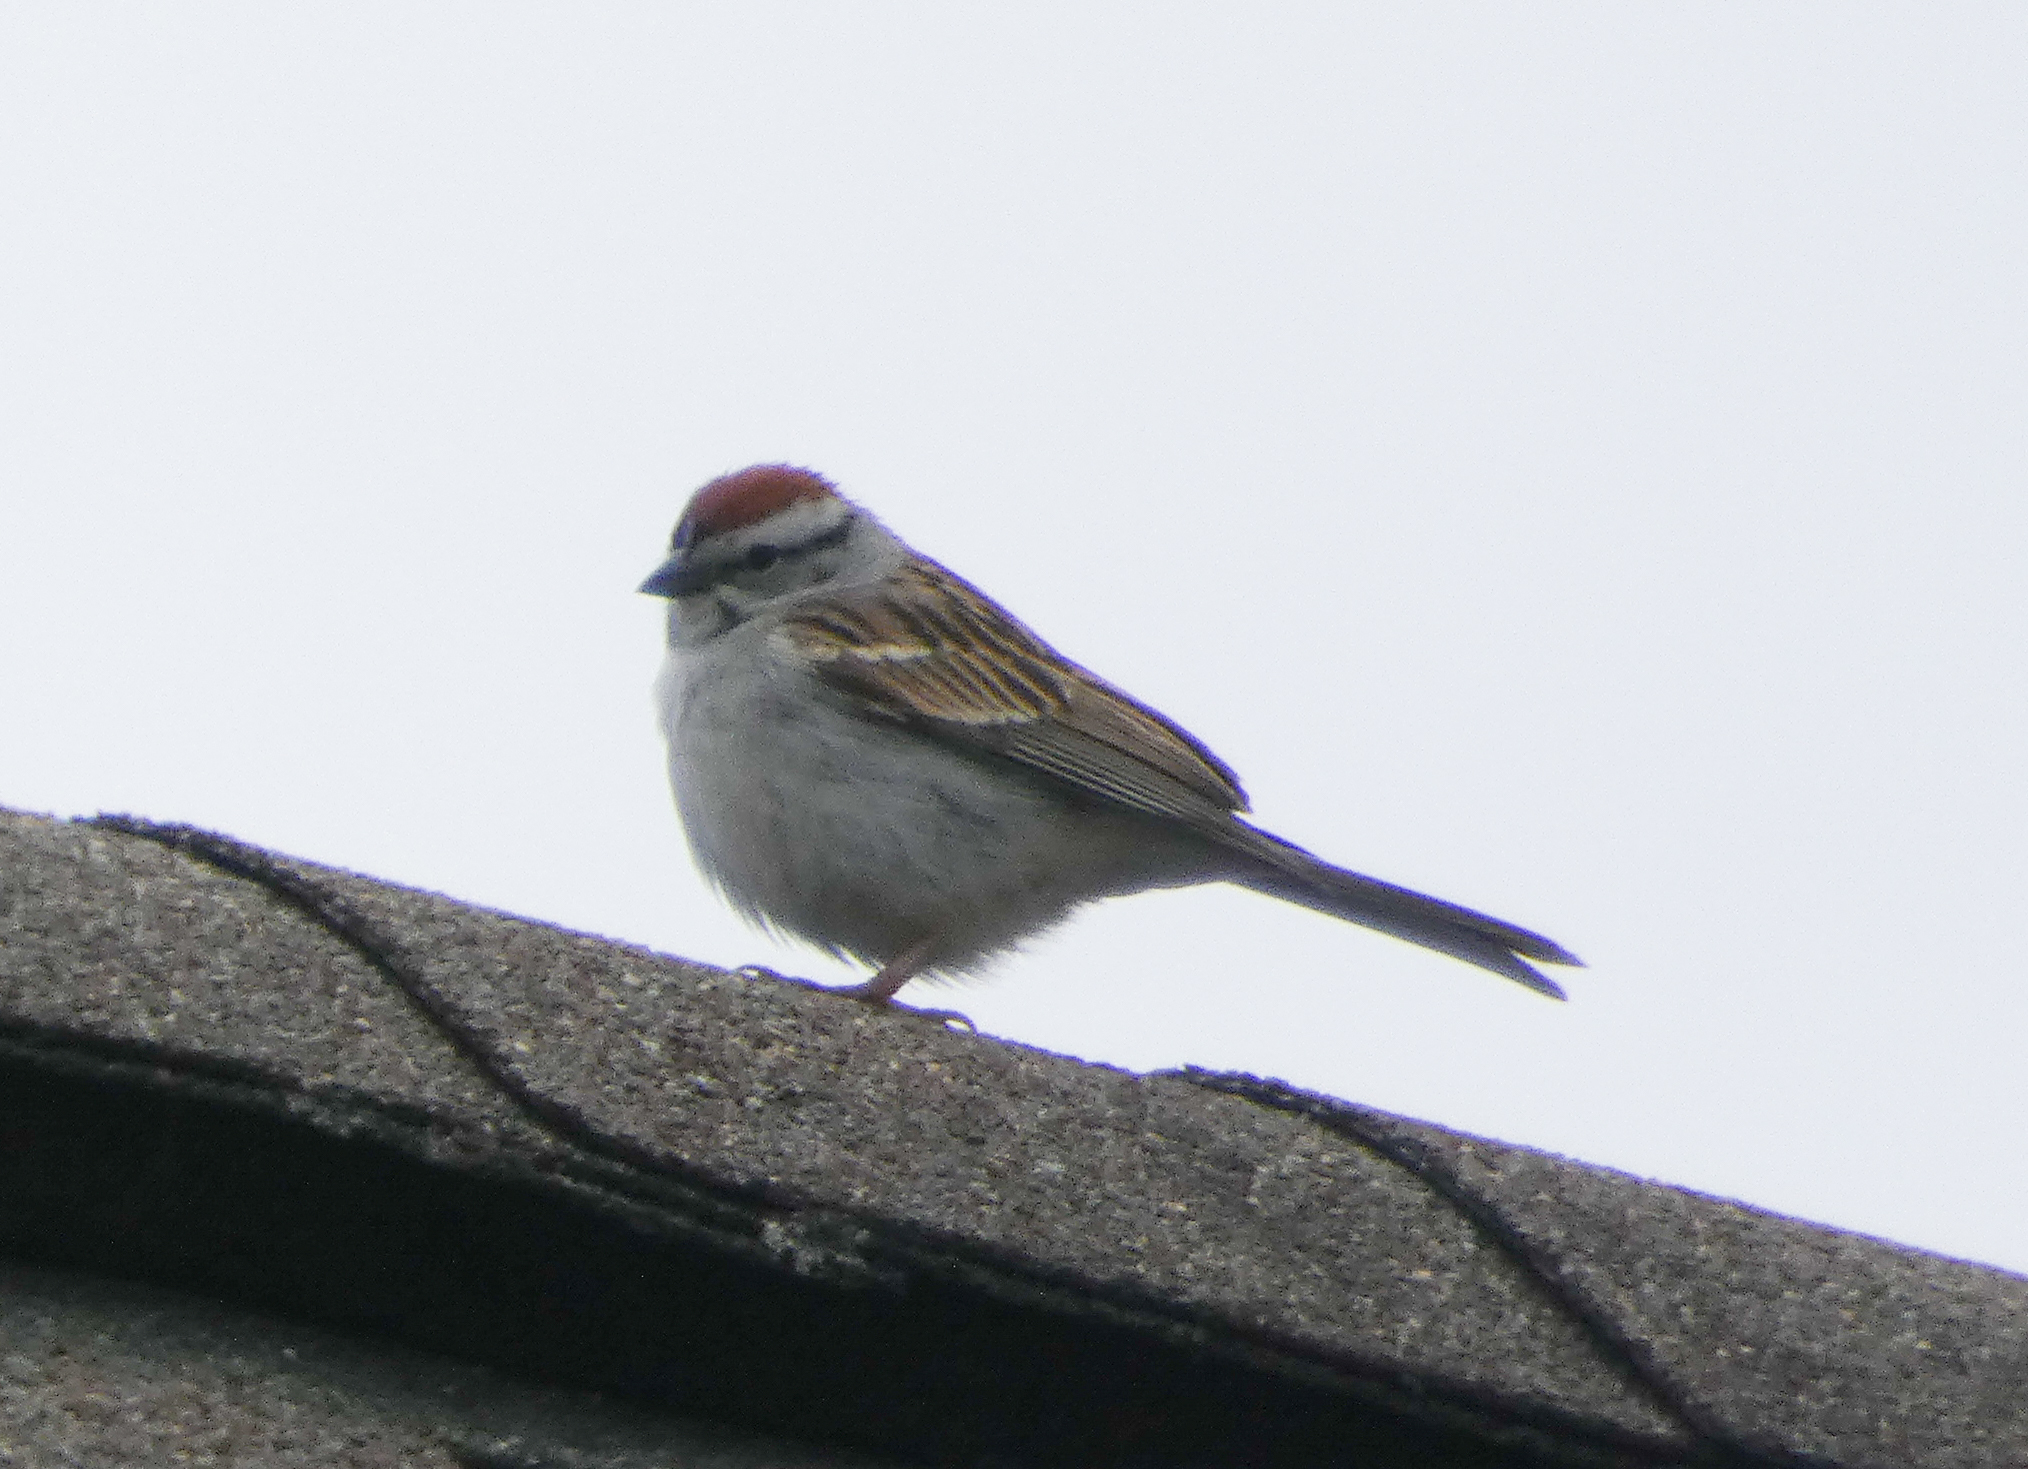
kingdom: Animalia
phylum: Chordata
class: Aves
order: Passeriformes
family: Passerellidae
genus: Spizella
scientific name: Spizella passerina
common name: Chipping sparrow
